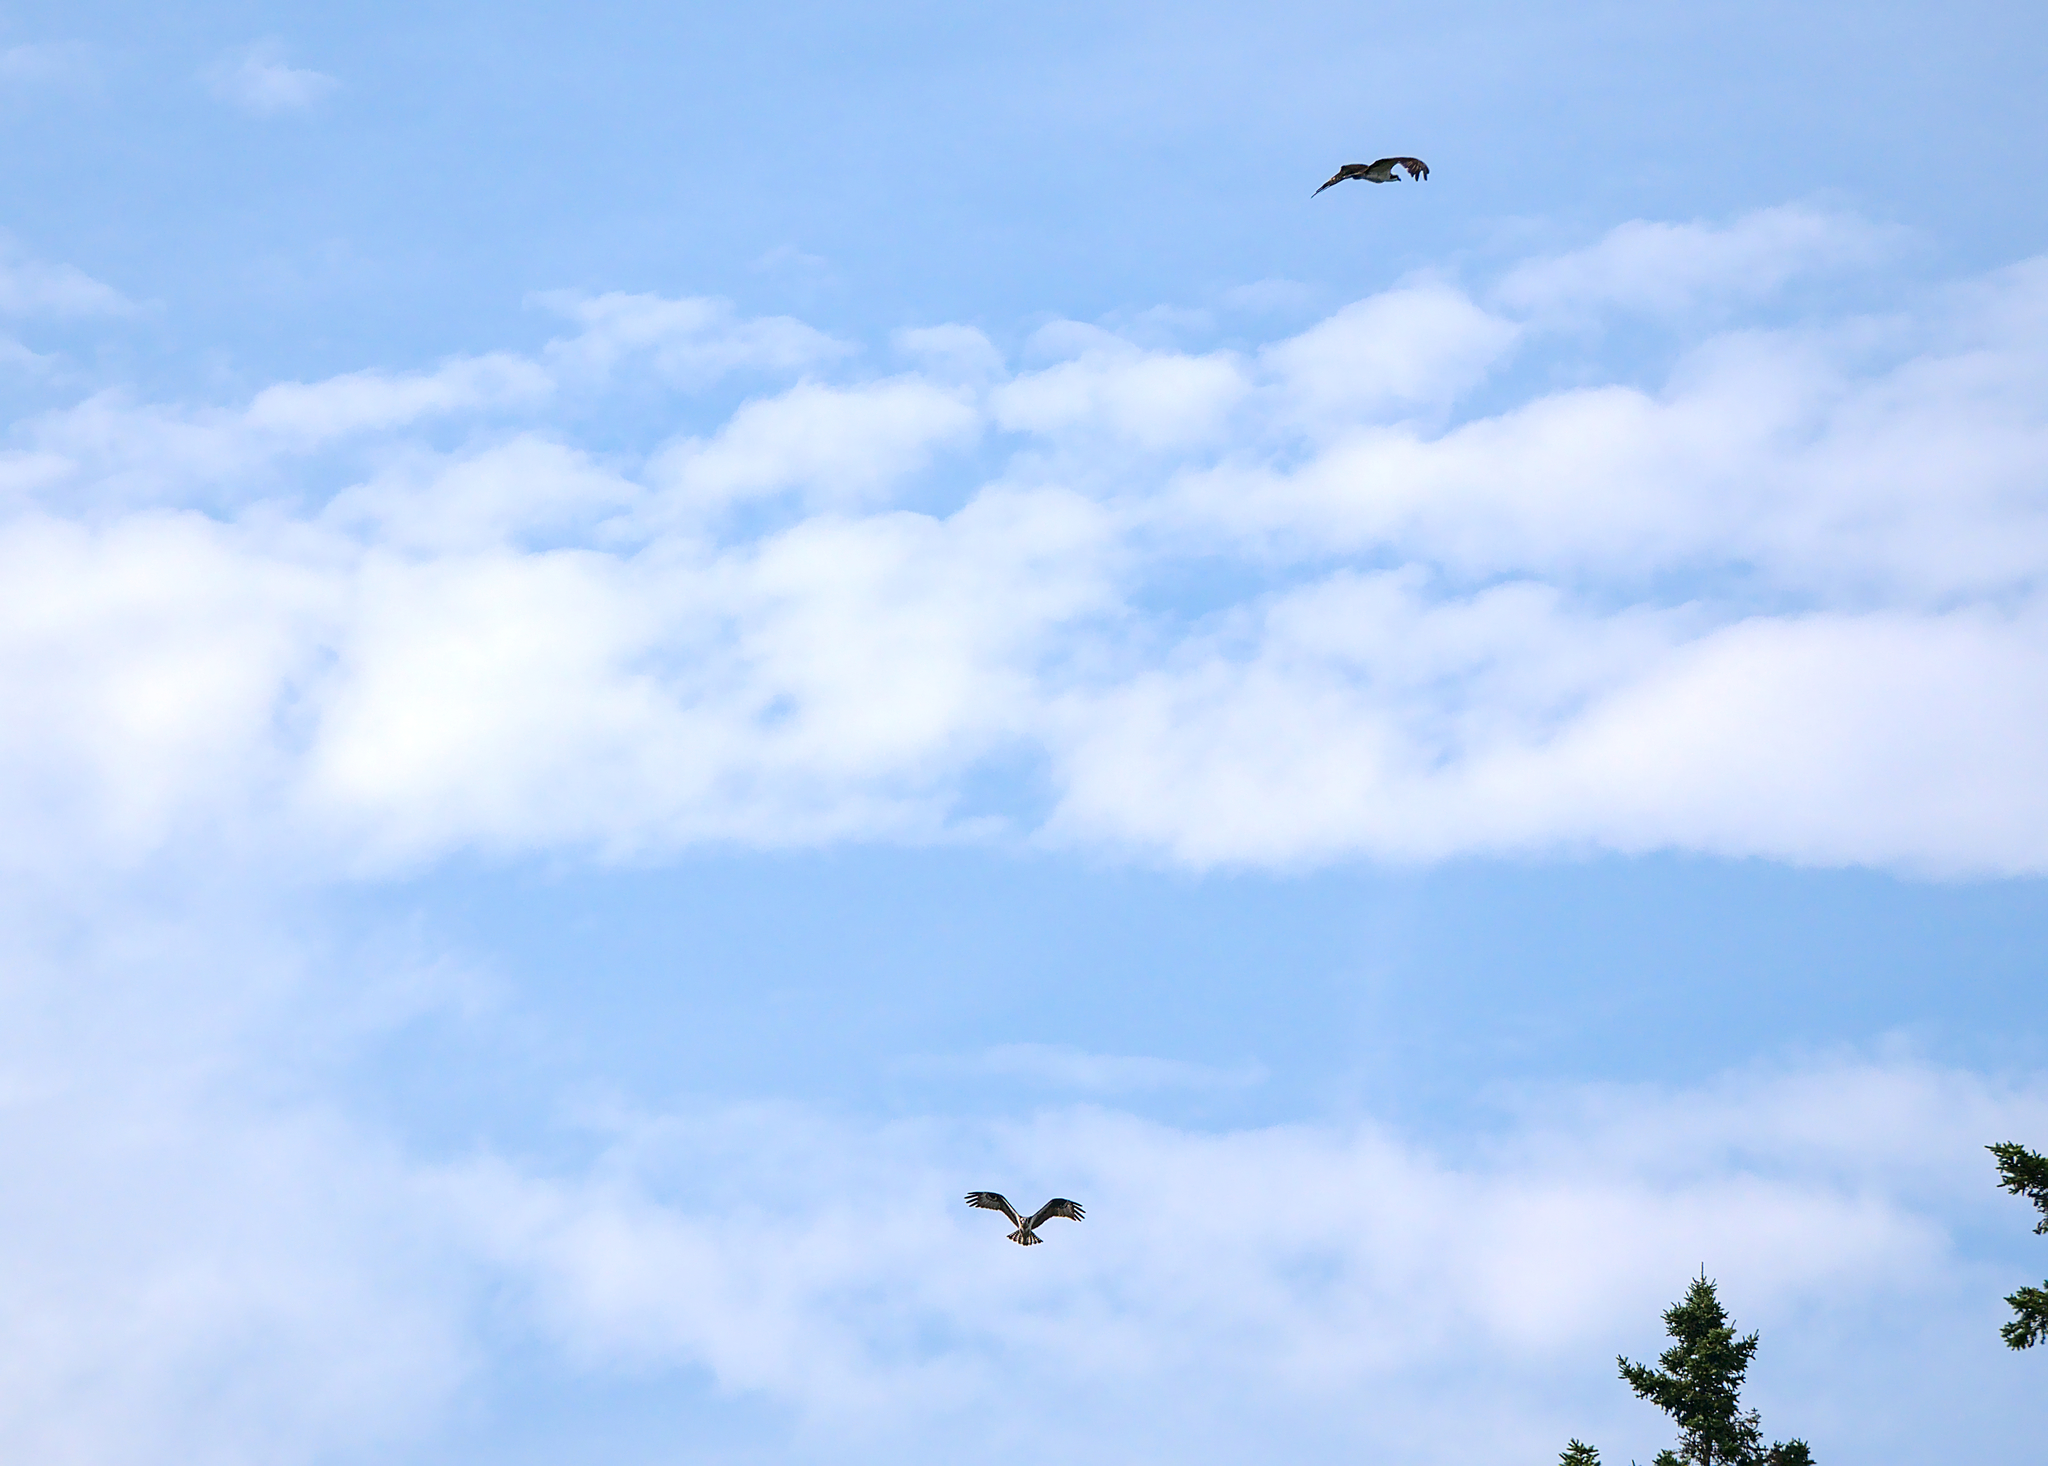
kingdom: Animalia
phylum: Chordata
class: Aves
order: Accipitriformes
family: Pandionidae
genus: Pandion
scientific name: Pandion haliaetus
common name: Osprey
